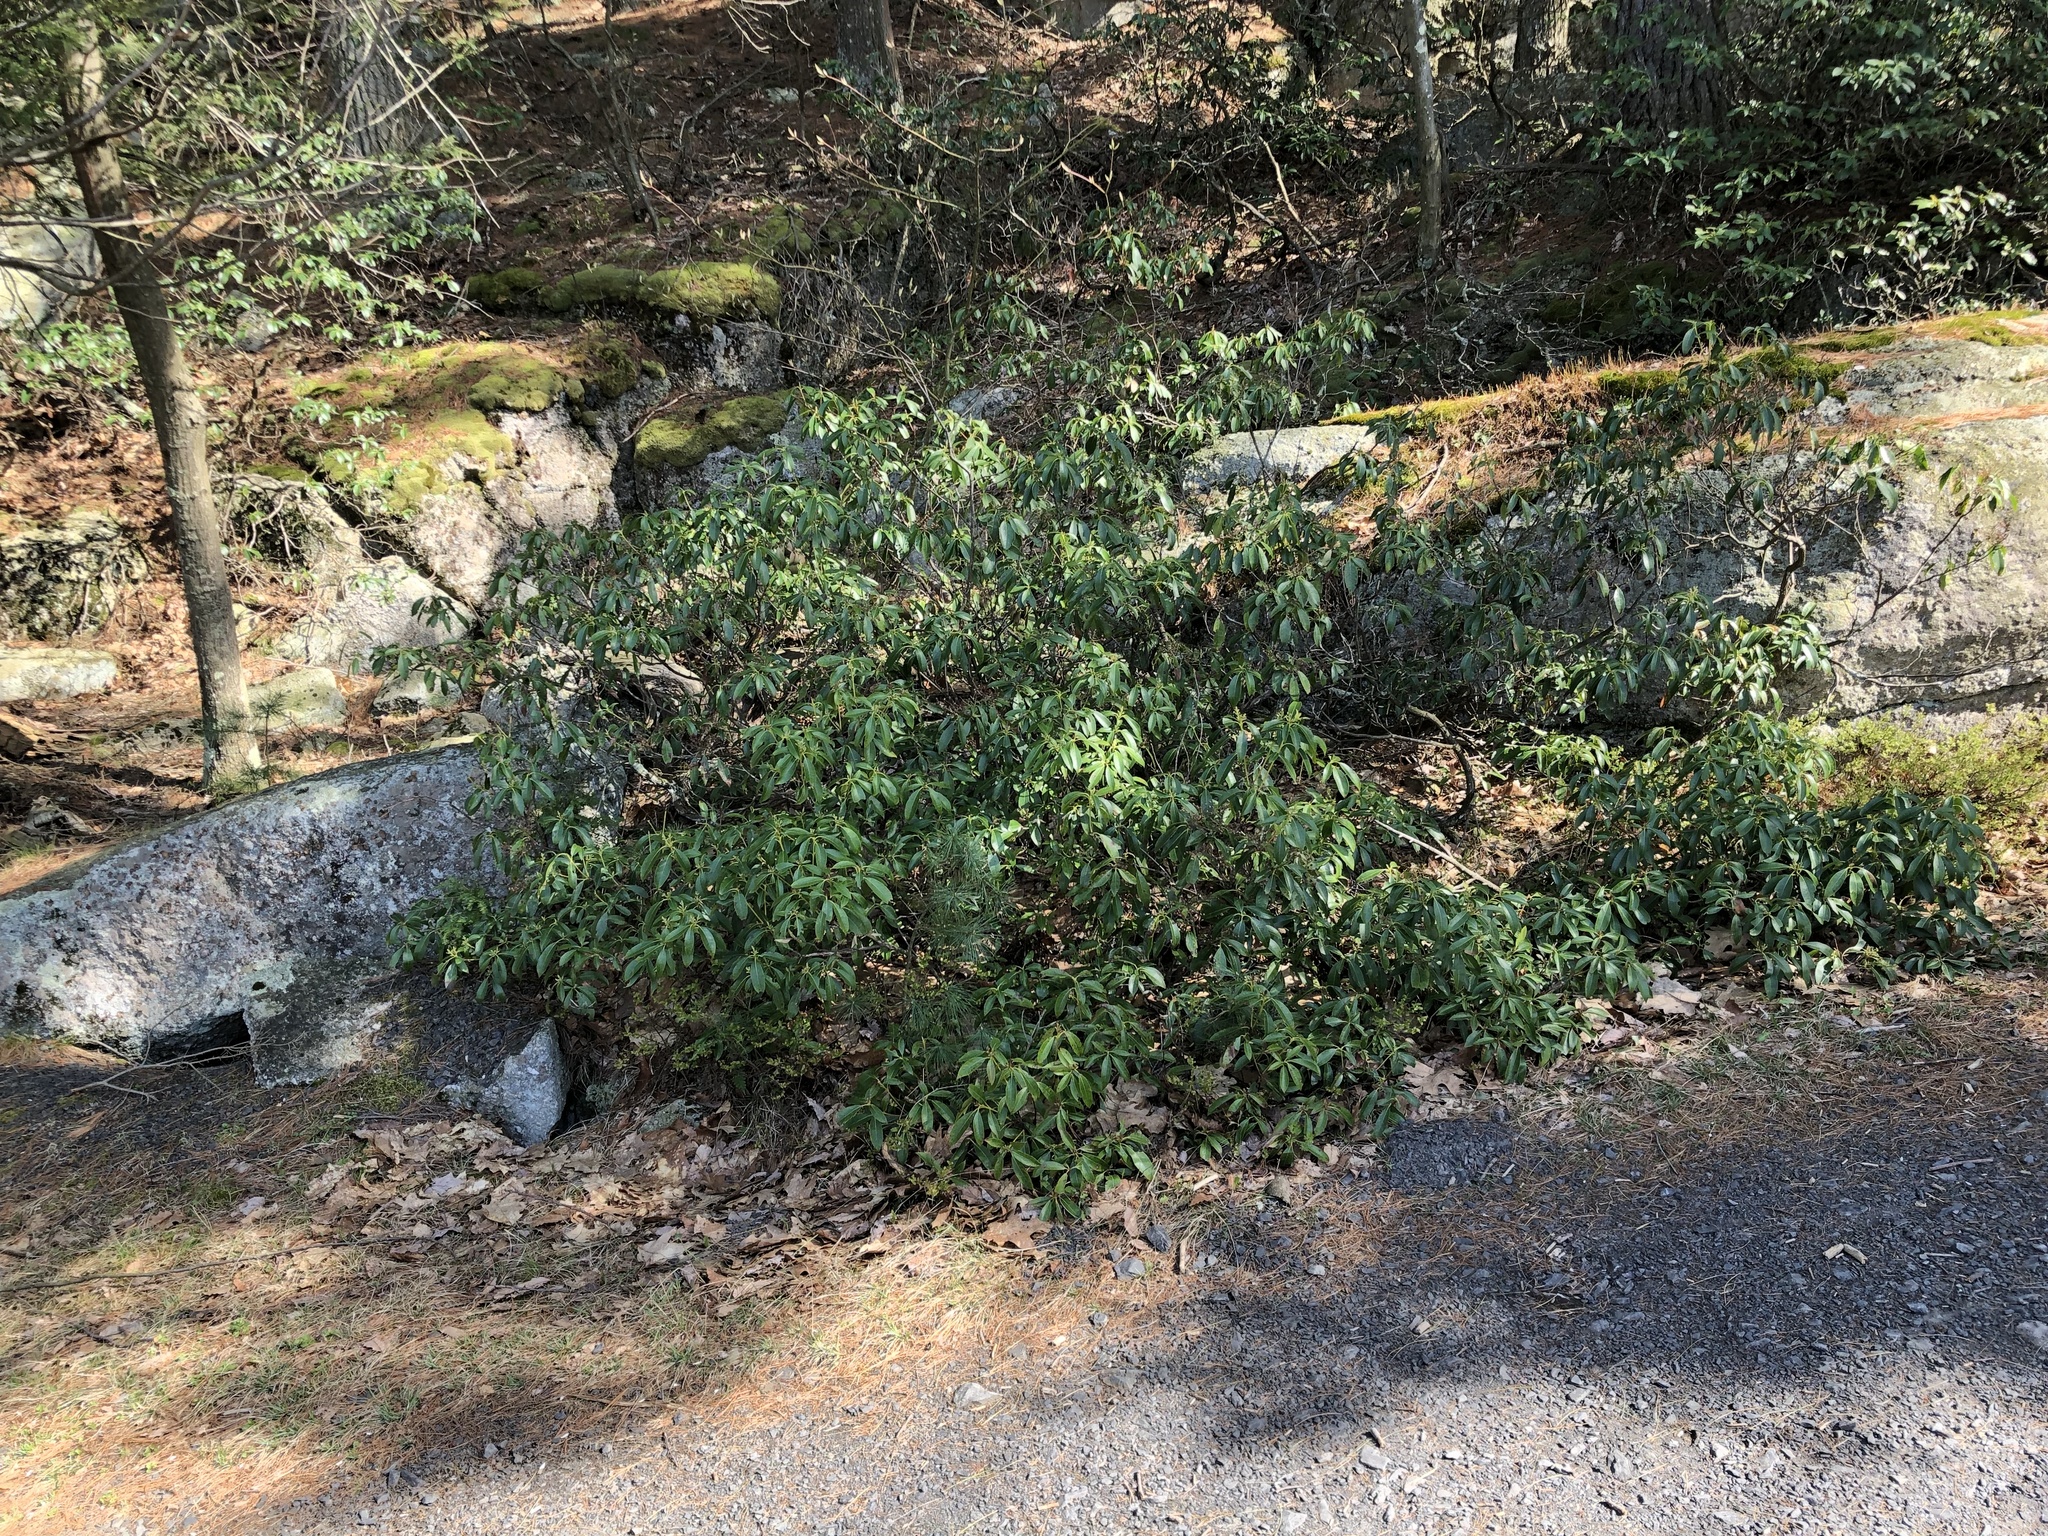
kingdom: Plantae
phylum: Tracheophyta
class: Magnoliopsida
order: Ericales
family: Ericaceae
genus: Kalmia
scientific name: Kalmia latifolia
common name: Mountain-laurel
